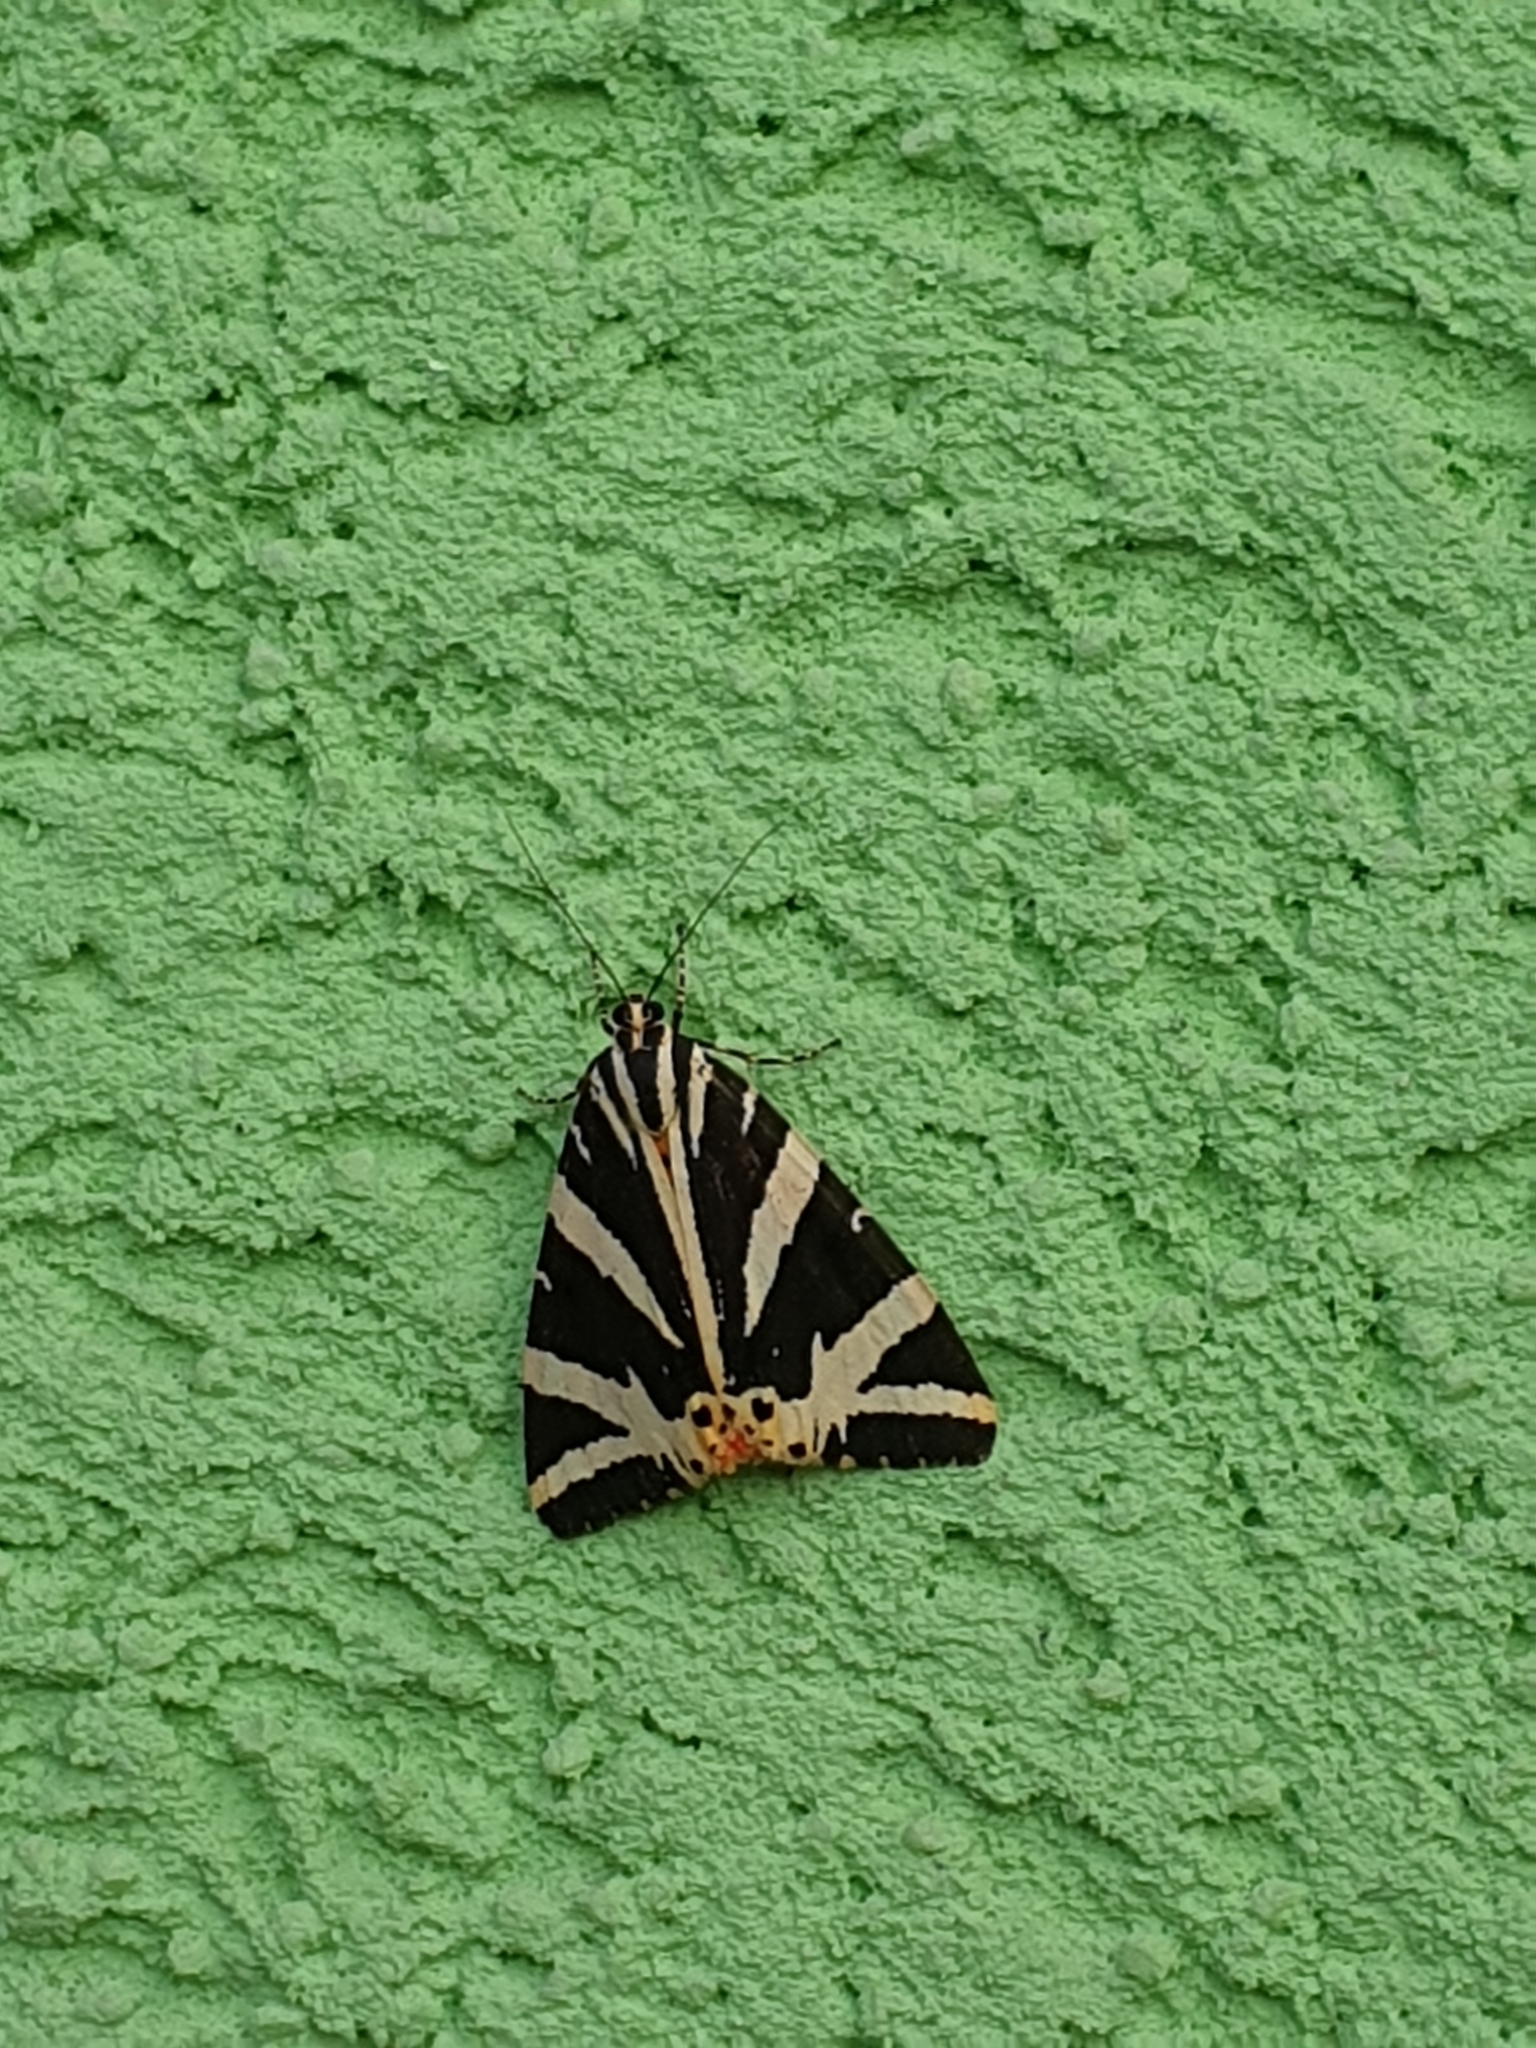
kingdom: Animalia
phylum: Arthropoda
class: Insecta
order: Lepidoptera
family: Erebidae
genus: Euplagia
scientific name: Euplagia quadripunctaria
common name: Jersey tiger
